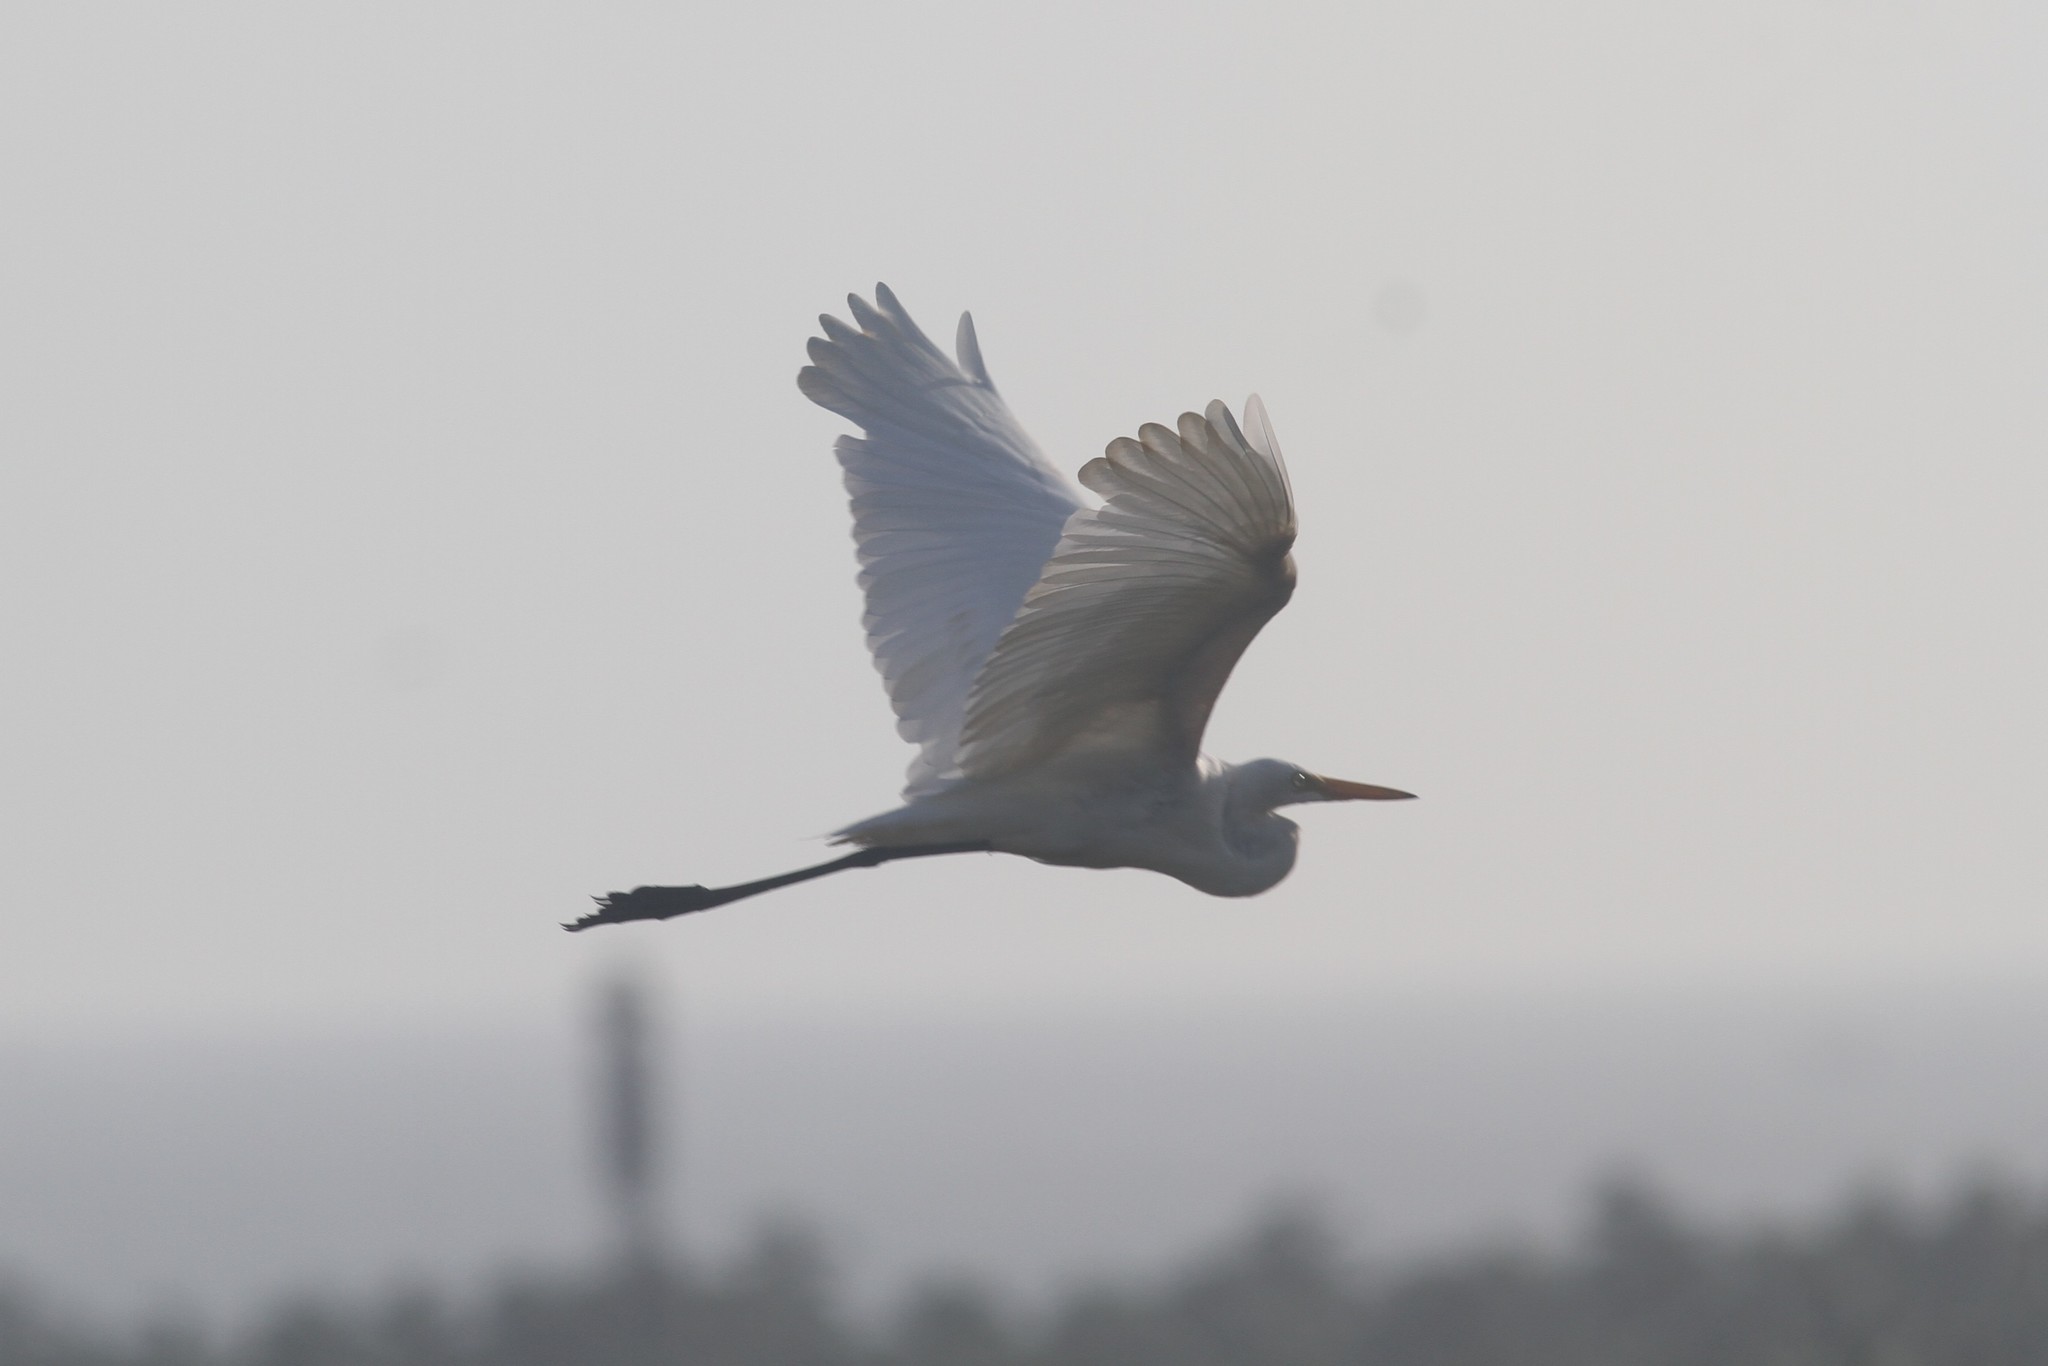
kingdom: Animalia
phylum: Chordata
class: Aves
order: Pelecaniformes
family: Ardeidae
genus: Ardea
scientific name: Ardea alba
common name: Great egret
